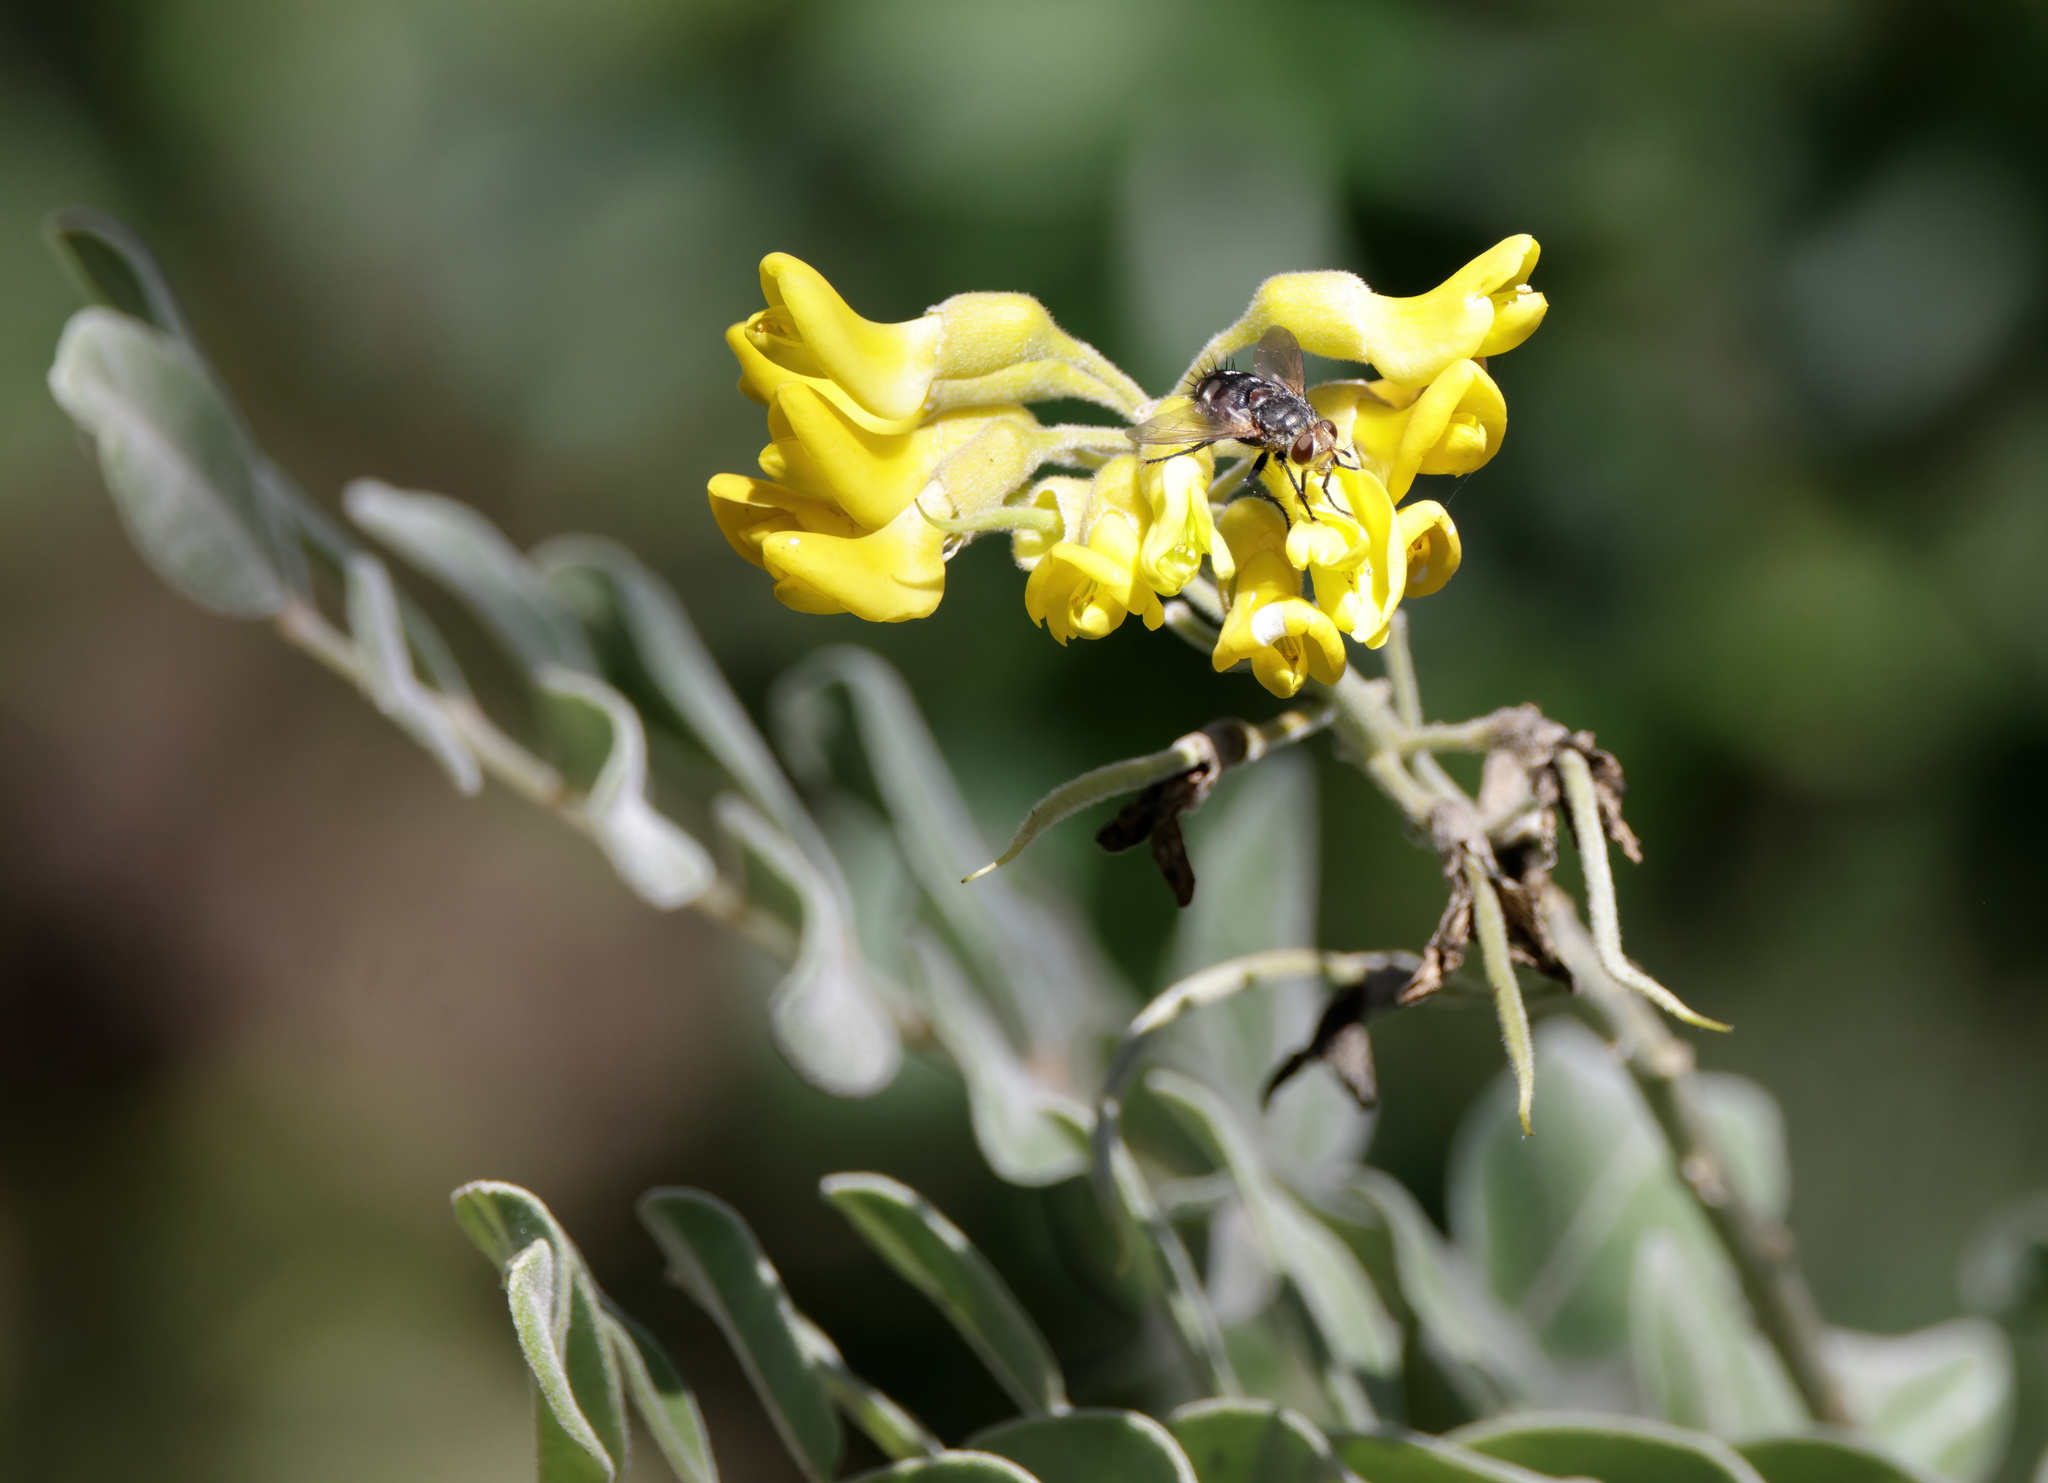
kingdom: Plantae
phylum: Tracheophyta
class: Magnoliopsida
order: Fabales
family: Fabaceae
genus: Sophora
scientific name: Sophora tomentosa
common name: Yellow necklacepod
